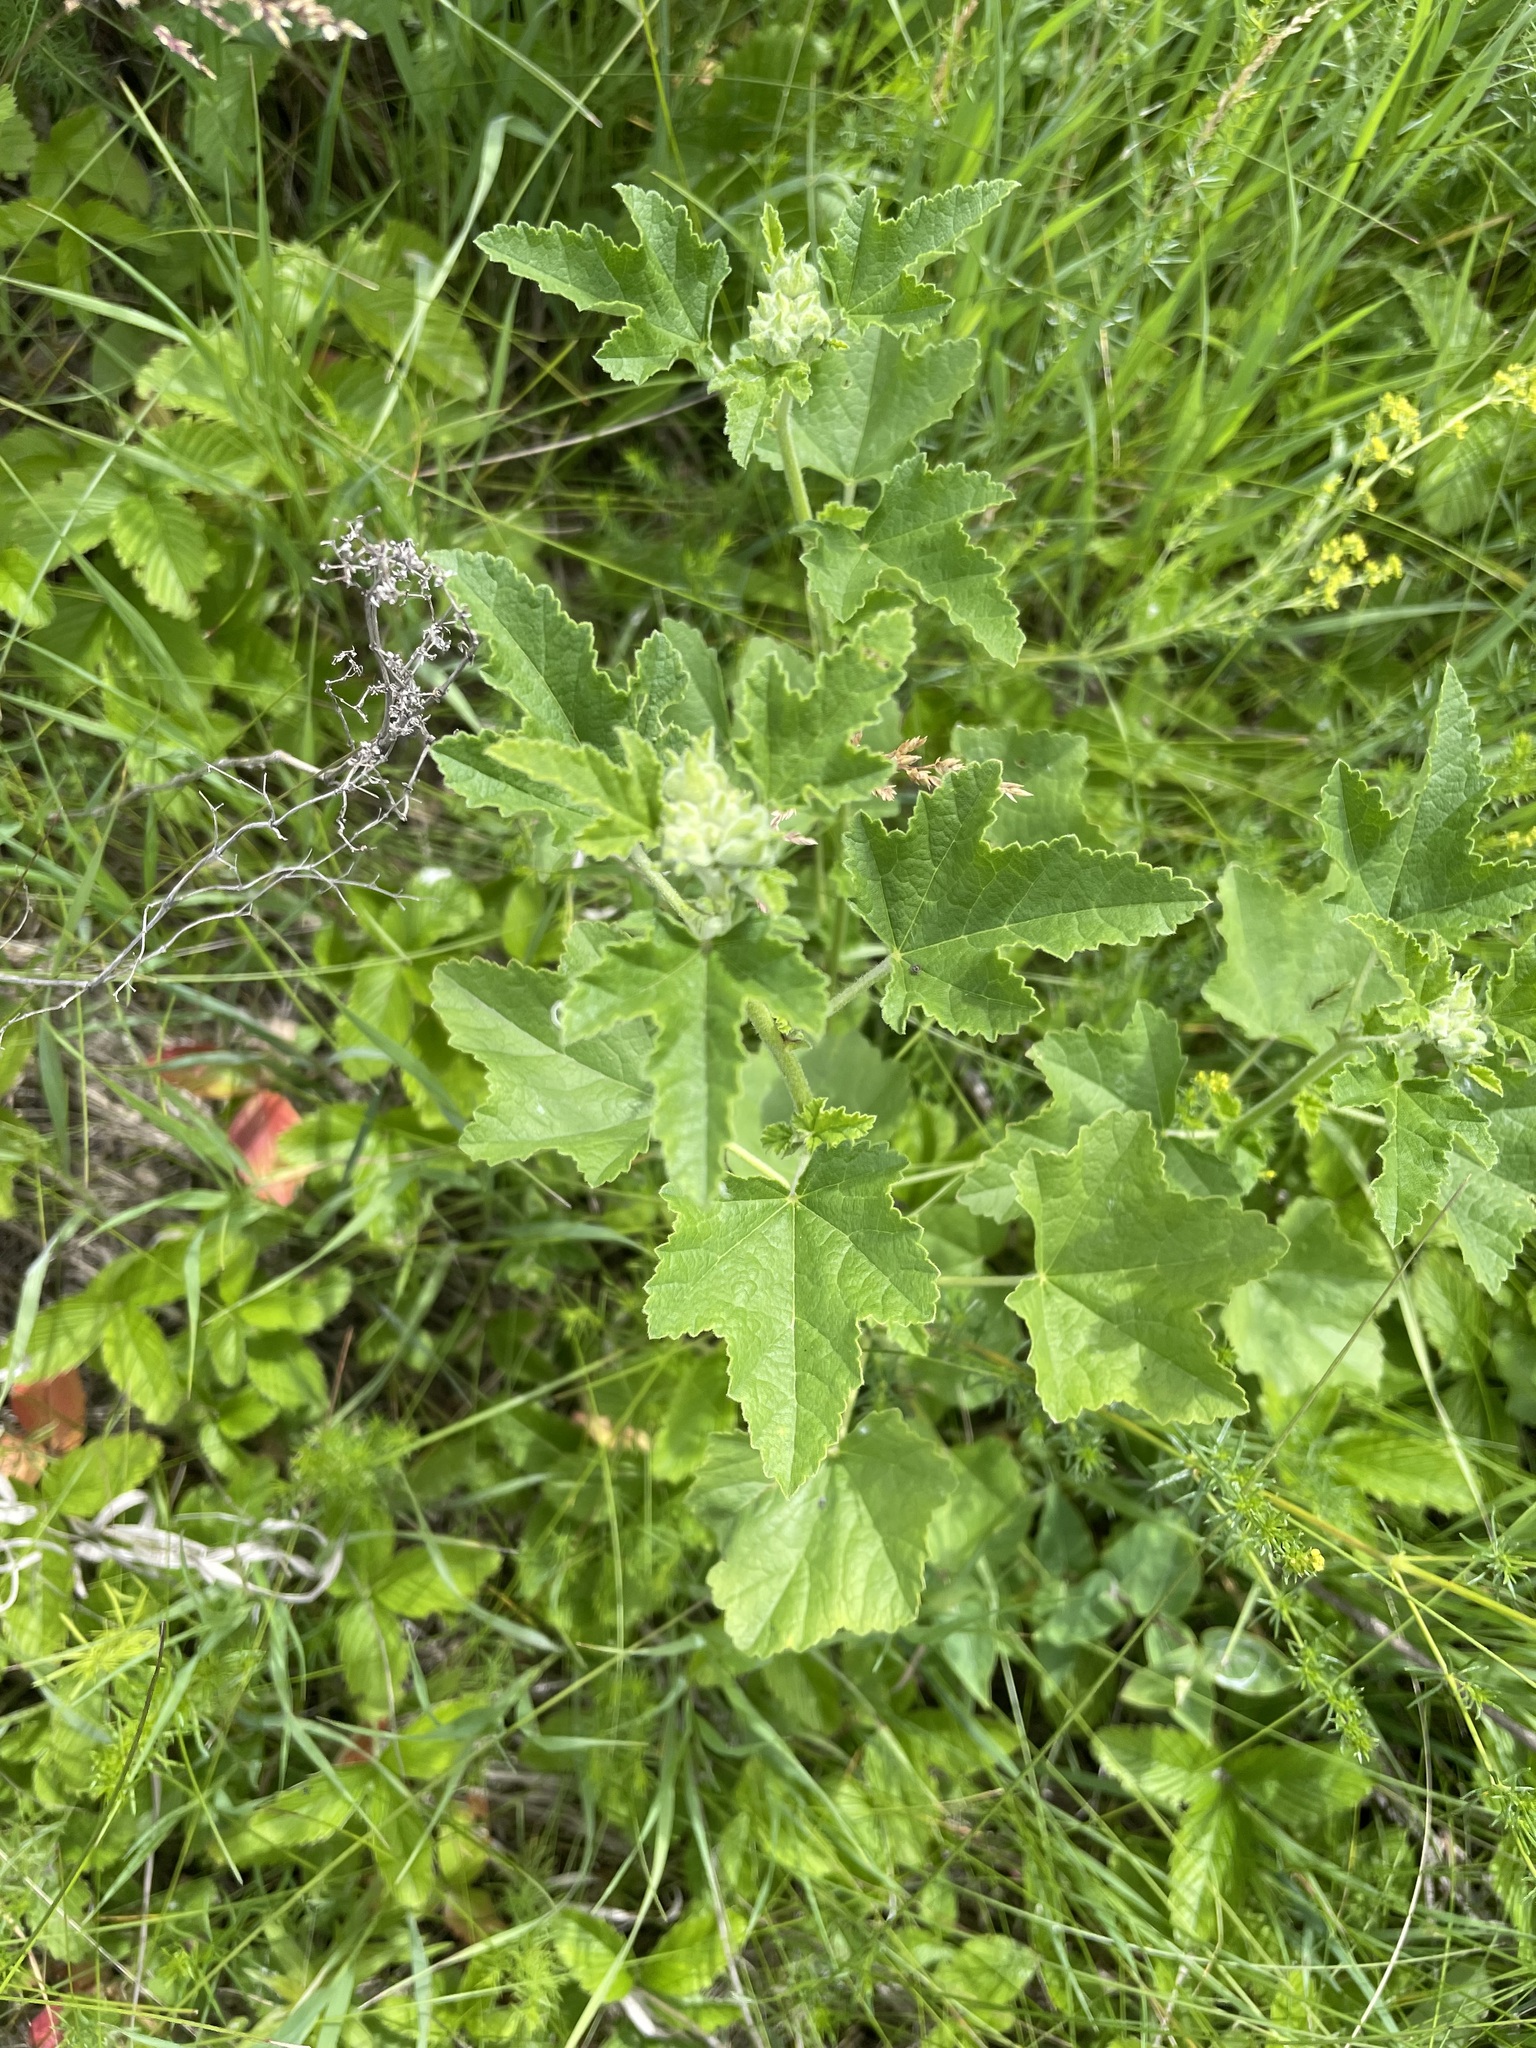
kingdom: Plantae
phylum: Tracheophyta
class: Magnoliopsida
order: Malvales
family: Malvaceae
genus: Malva
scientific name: Malva thuringiaca
